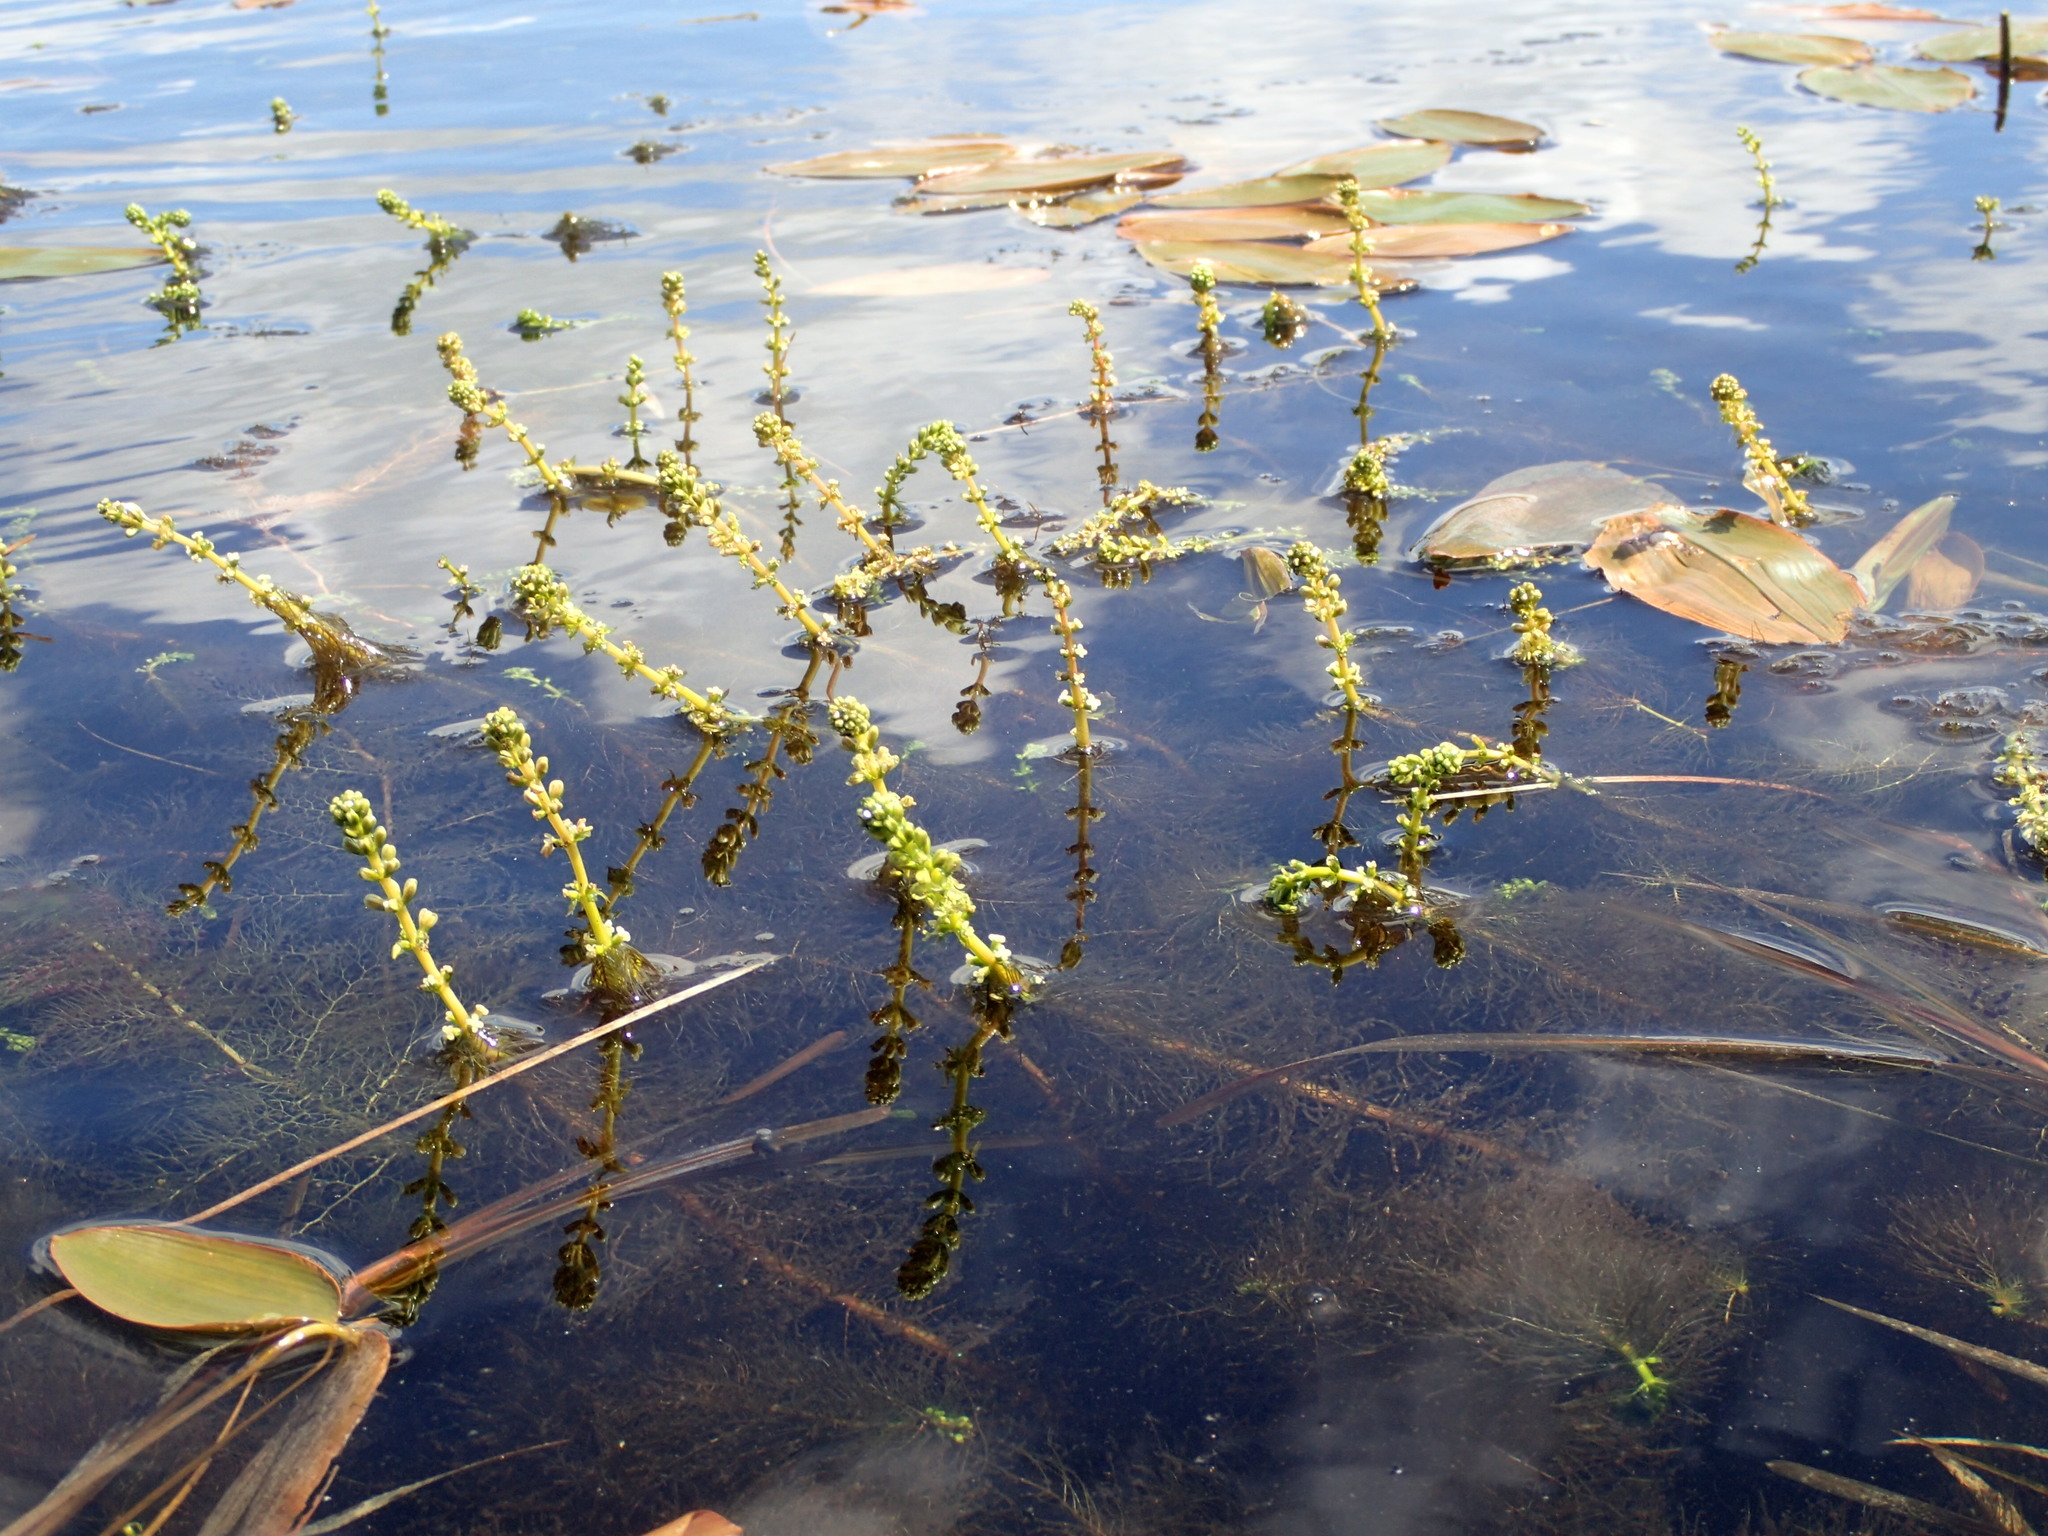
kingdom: Plantae
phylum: Tracheophyta
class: Magnoliopsida
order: Saxifragales
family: Haloragaceae
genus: Myriophyllum
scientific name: Myriophyllum sibiricum
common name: Siberian water-milfoil
